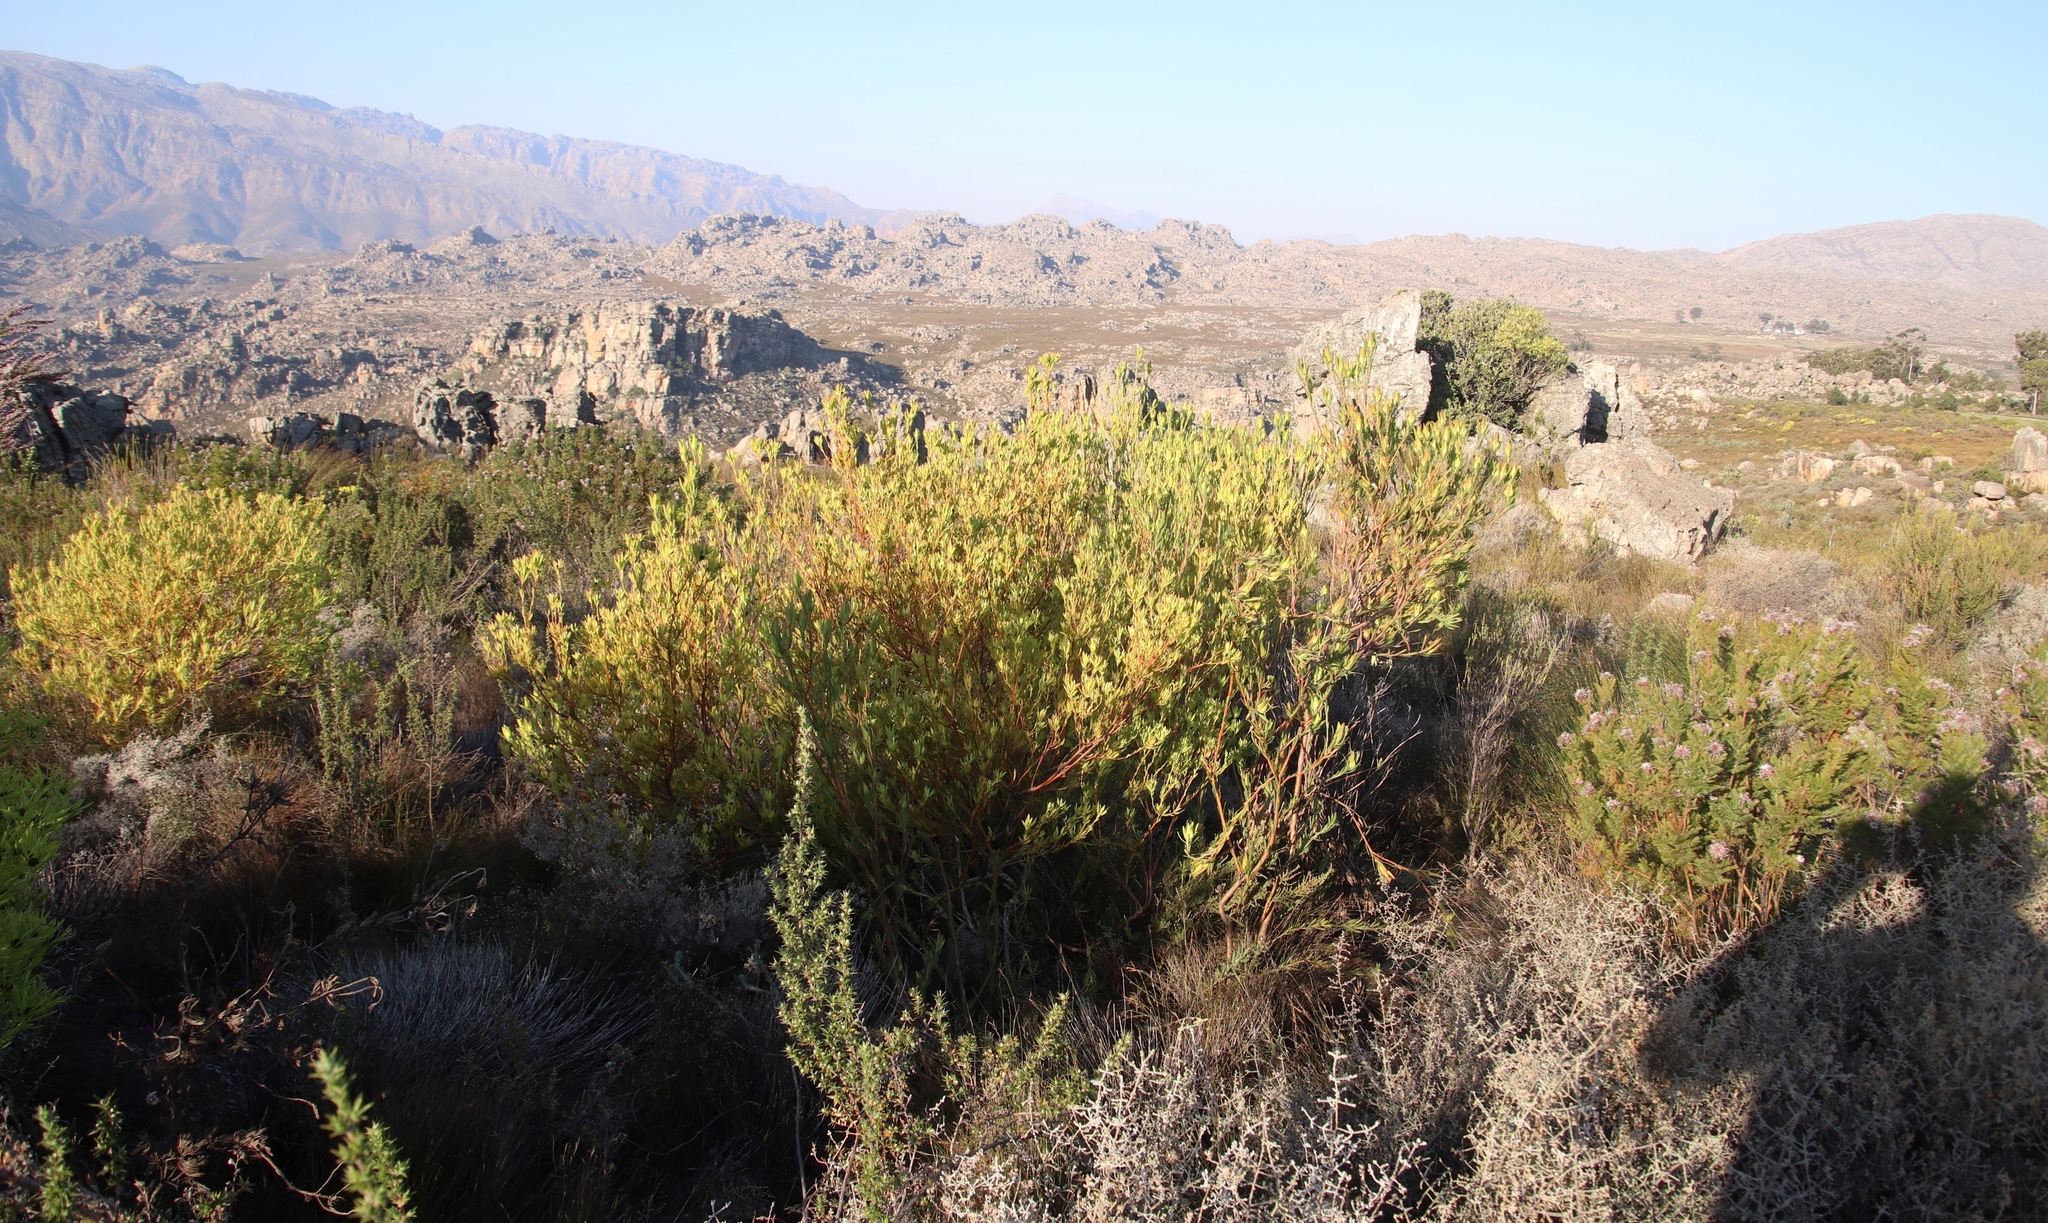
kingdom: Plantae
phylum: Tracheophyta
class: Magnoliopsida
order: Proteales
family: Proteaceae
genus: Leucadendron
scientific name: Leucadendron
